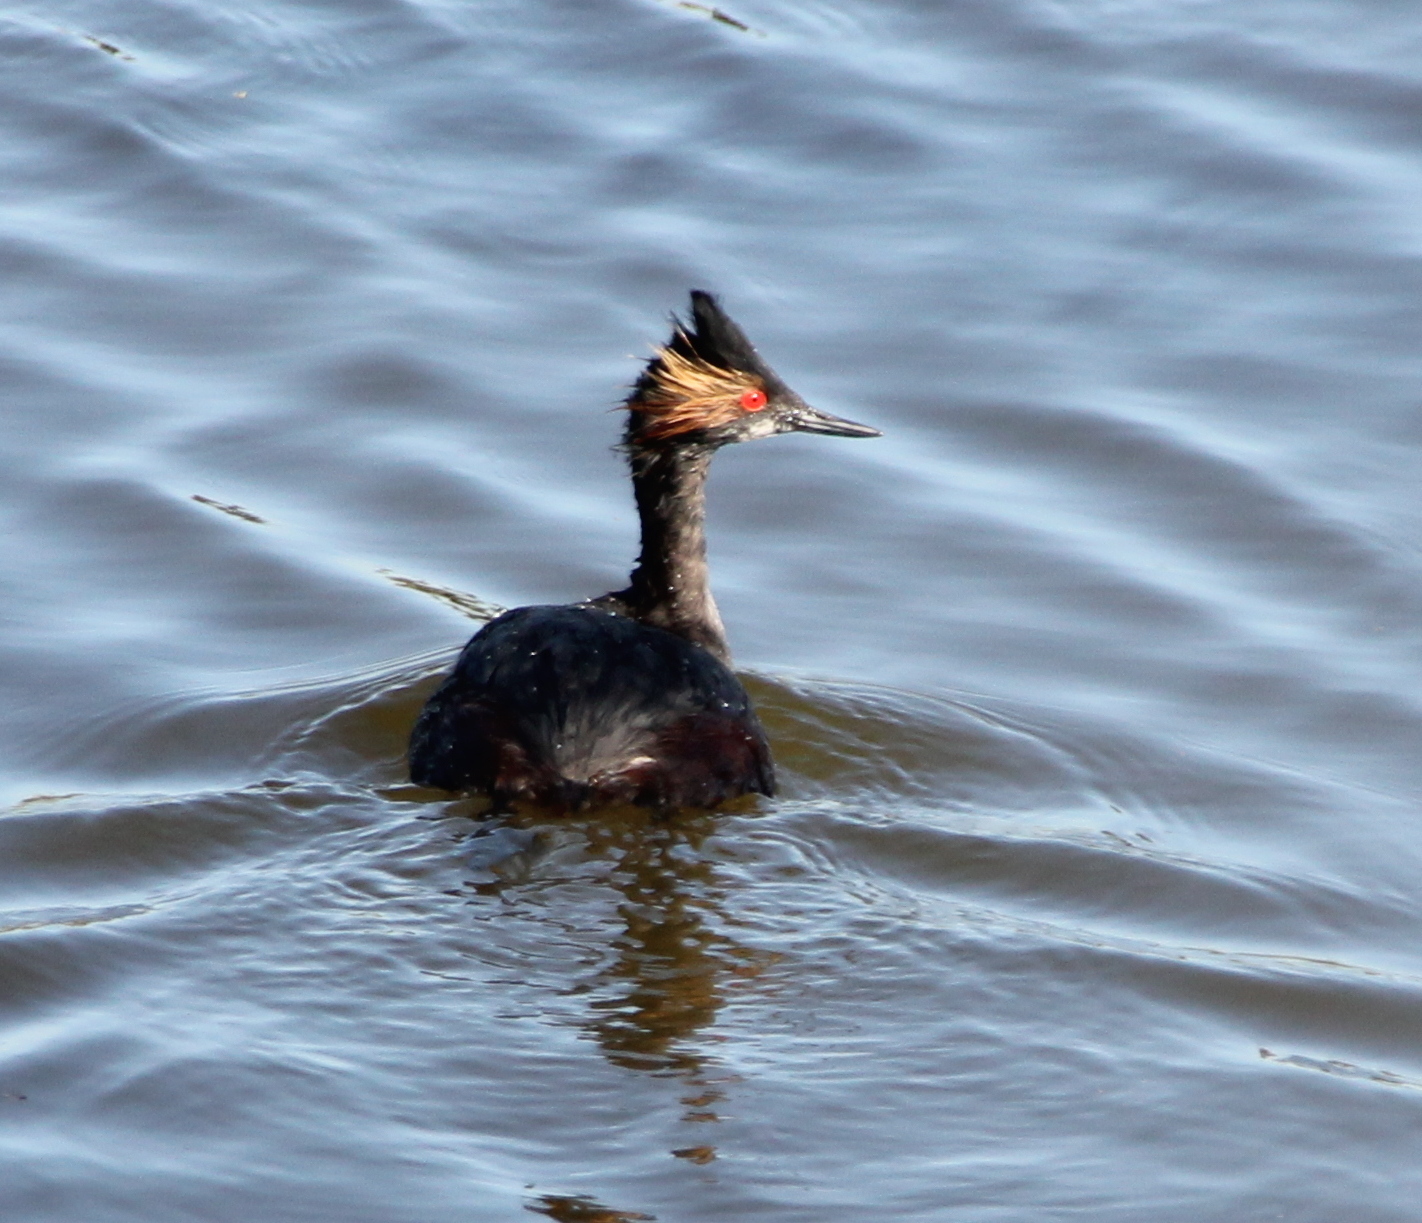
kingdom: Animalia
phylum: Chordata
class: Aves
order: Podicipediformes
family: Podicipedidae
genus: Podiceps
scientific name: Podiceps nigricollis
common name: Black-necked grebe
